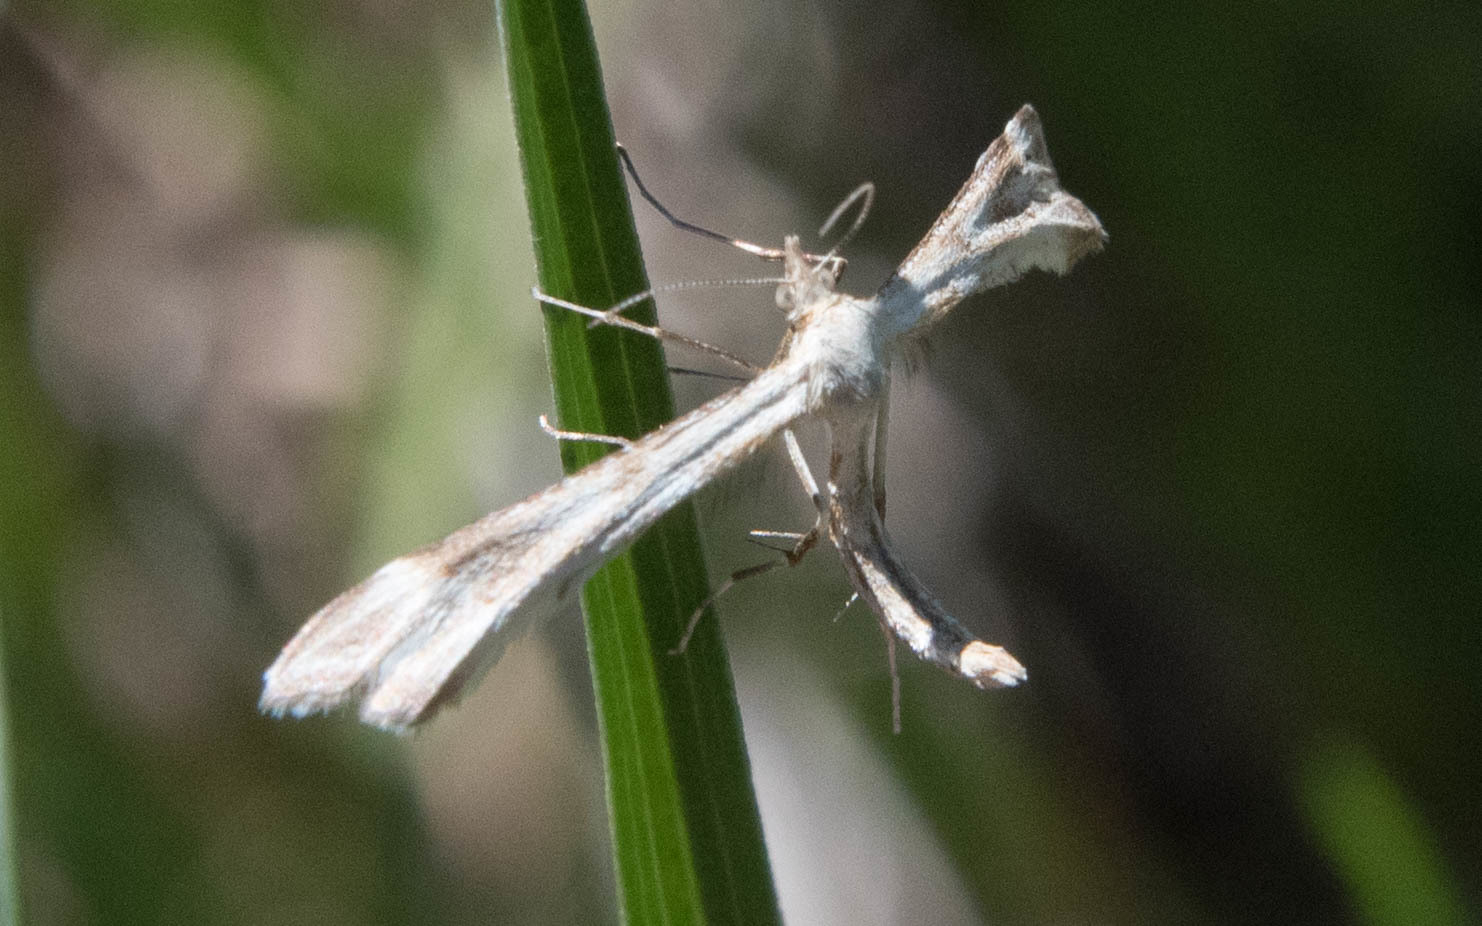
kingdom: Animalia
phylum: Arthropoda
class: Insecta
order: Lepidoptera
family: Pterophoridae
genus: Gillmeria
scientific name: Gillmeria pallidactyla
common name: Yarrow plume
